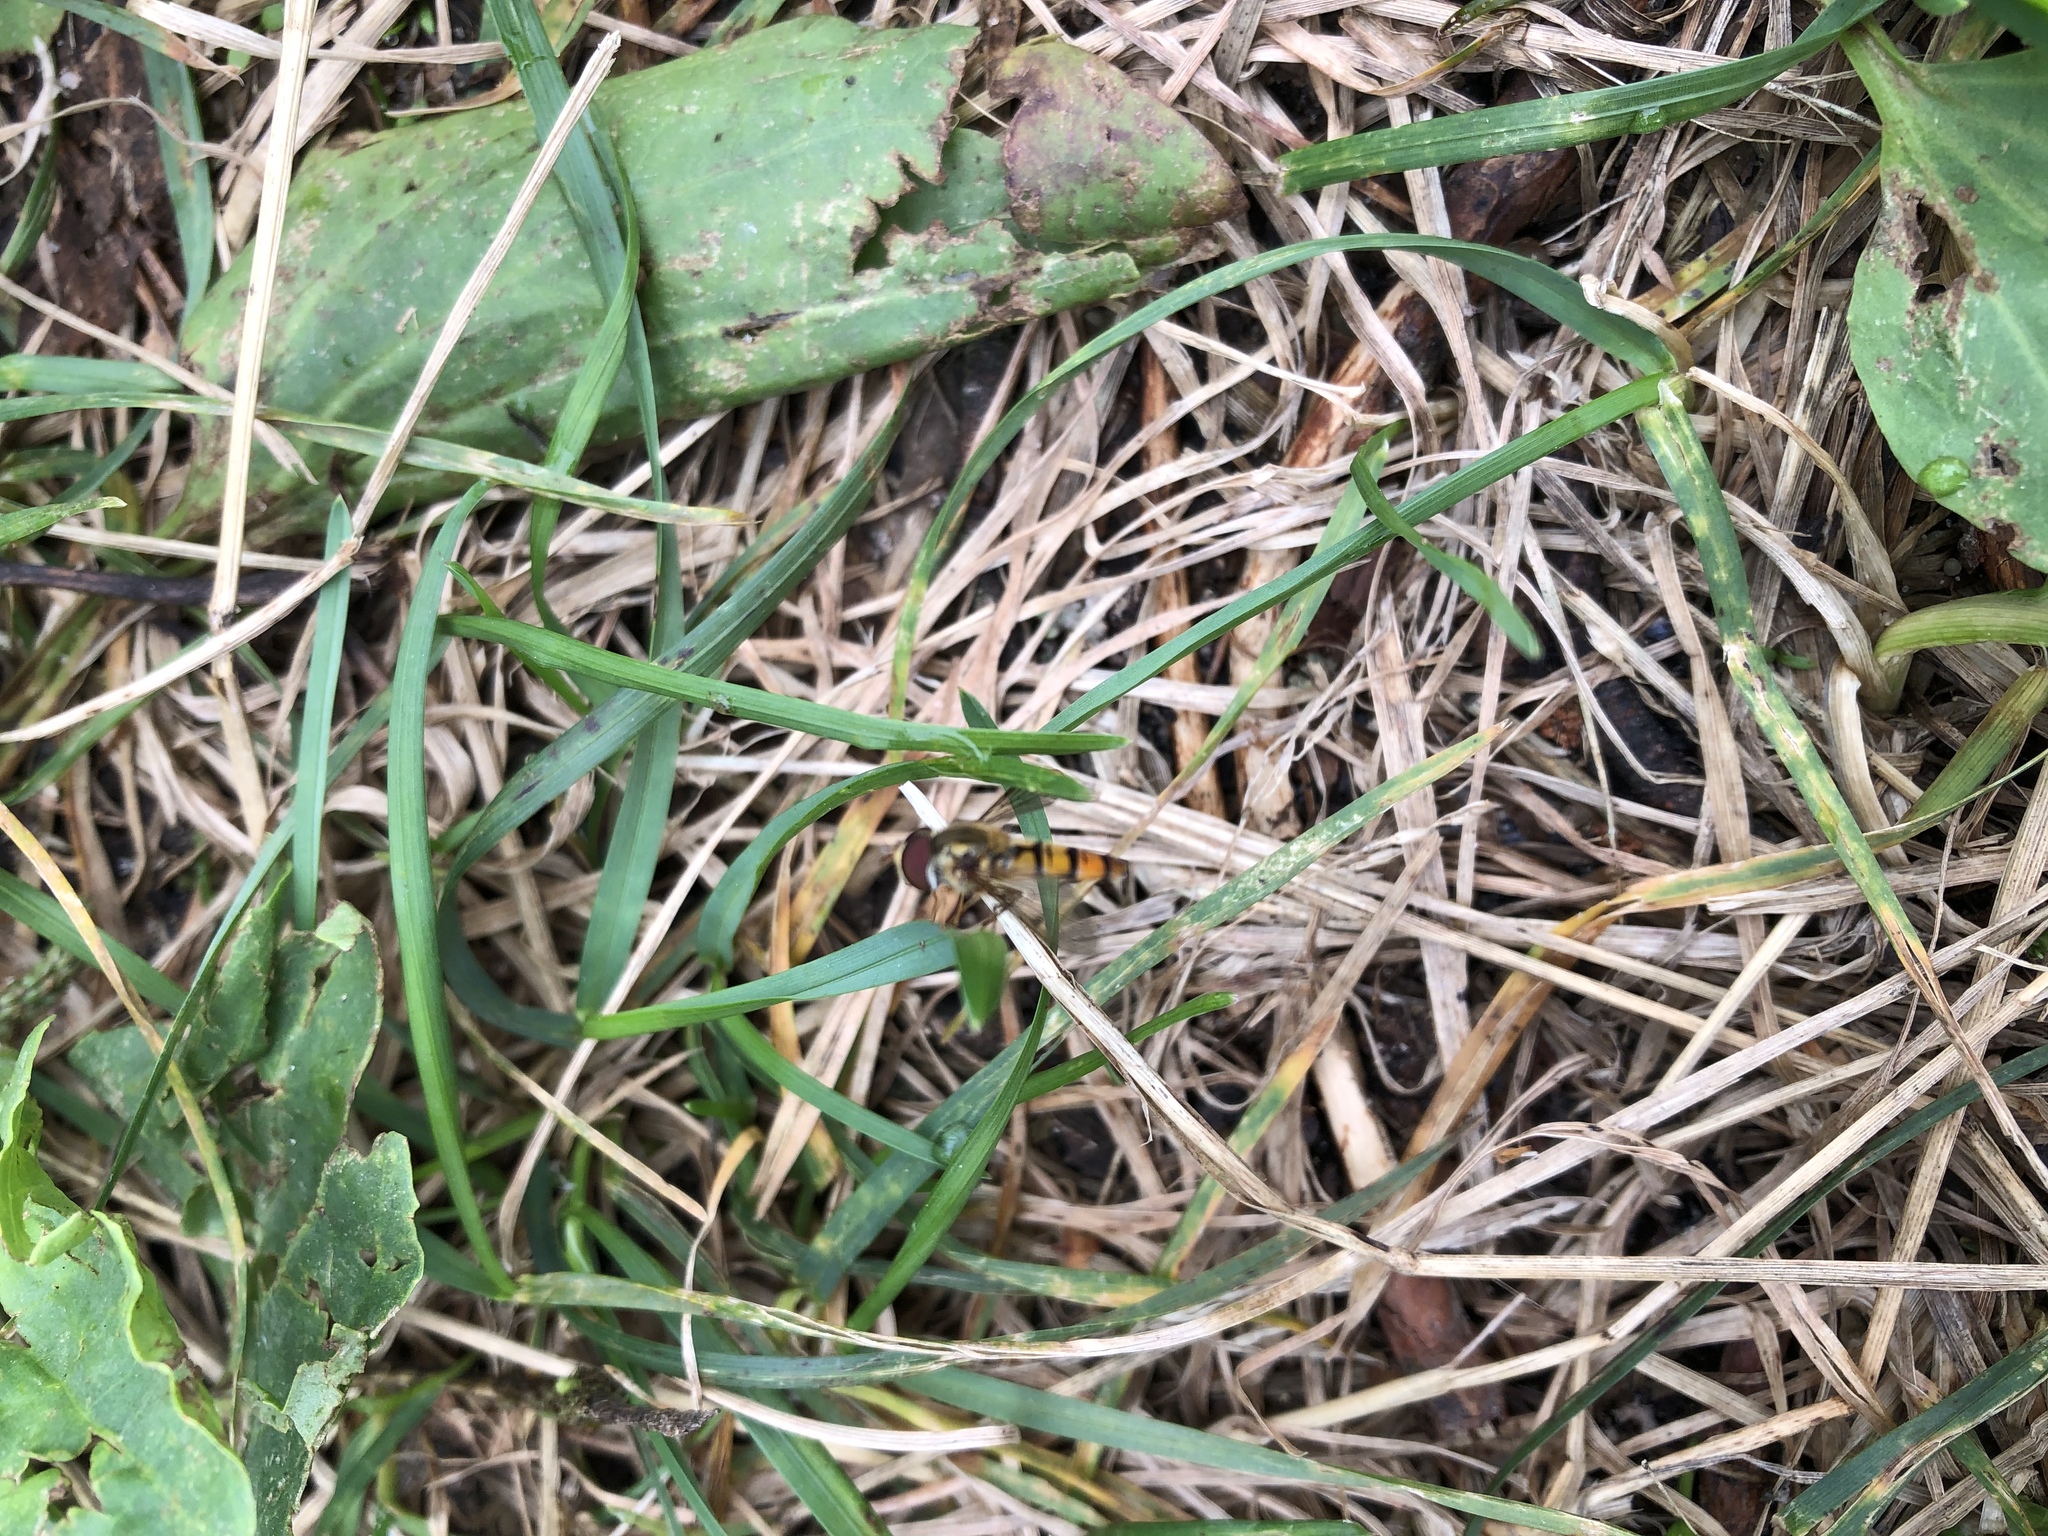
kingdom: Animalia
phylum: Arthropoda
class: Insecta
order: Diptera
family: Syrphidae
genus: Episyrphus
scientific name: Episyrphus balteatus
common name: Marmalade hoverfly
